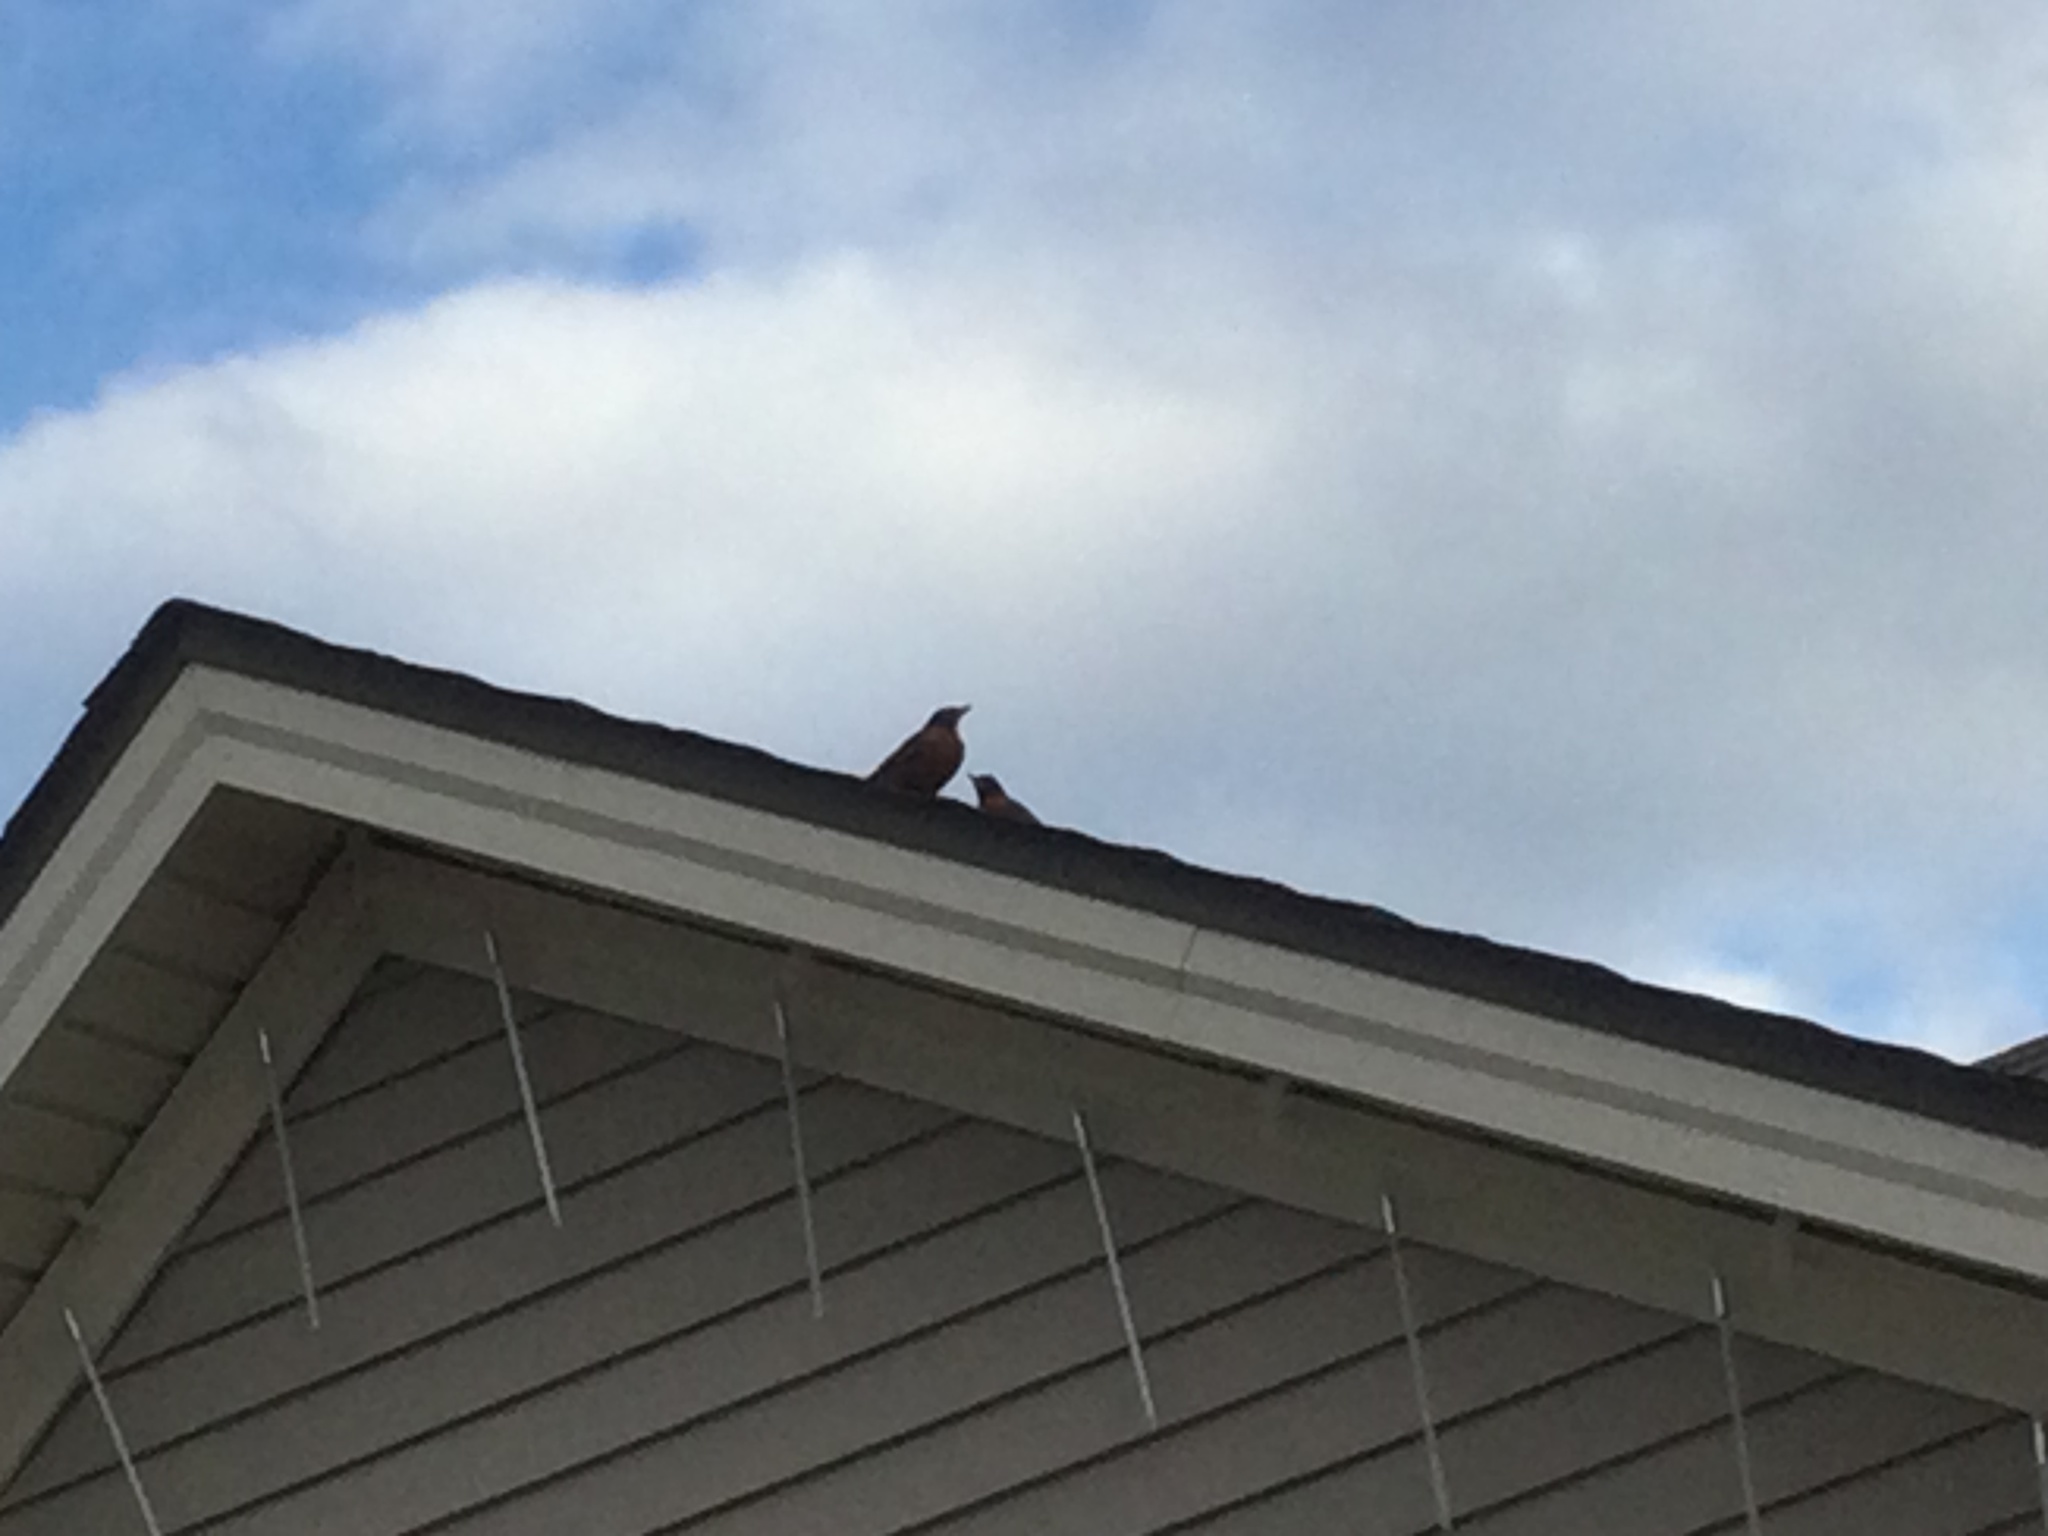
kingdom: Animalia
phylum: Chordata
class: Aves
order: Passeriformes
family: Turdidae
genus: Turdus
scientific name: Turdus migratorius
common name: American robin
